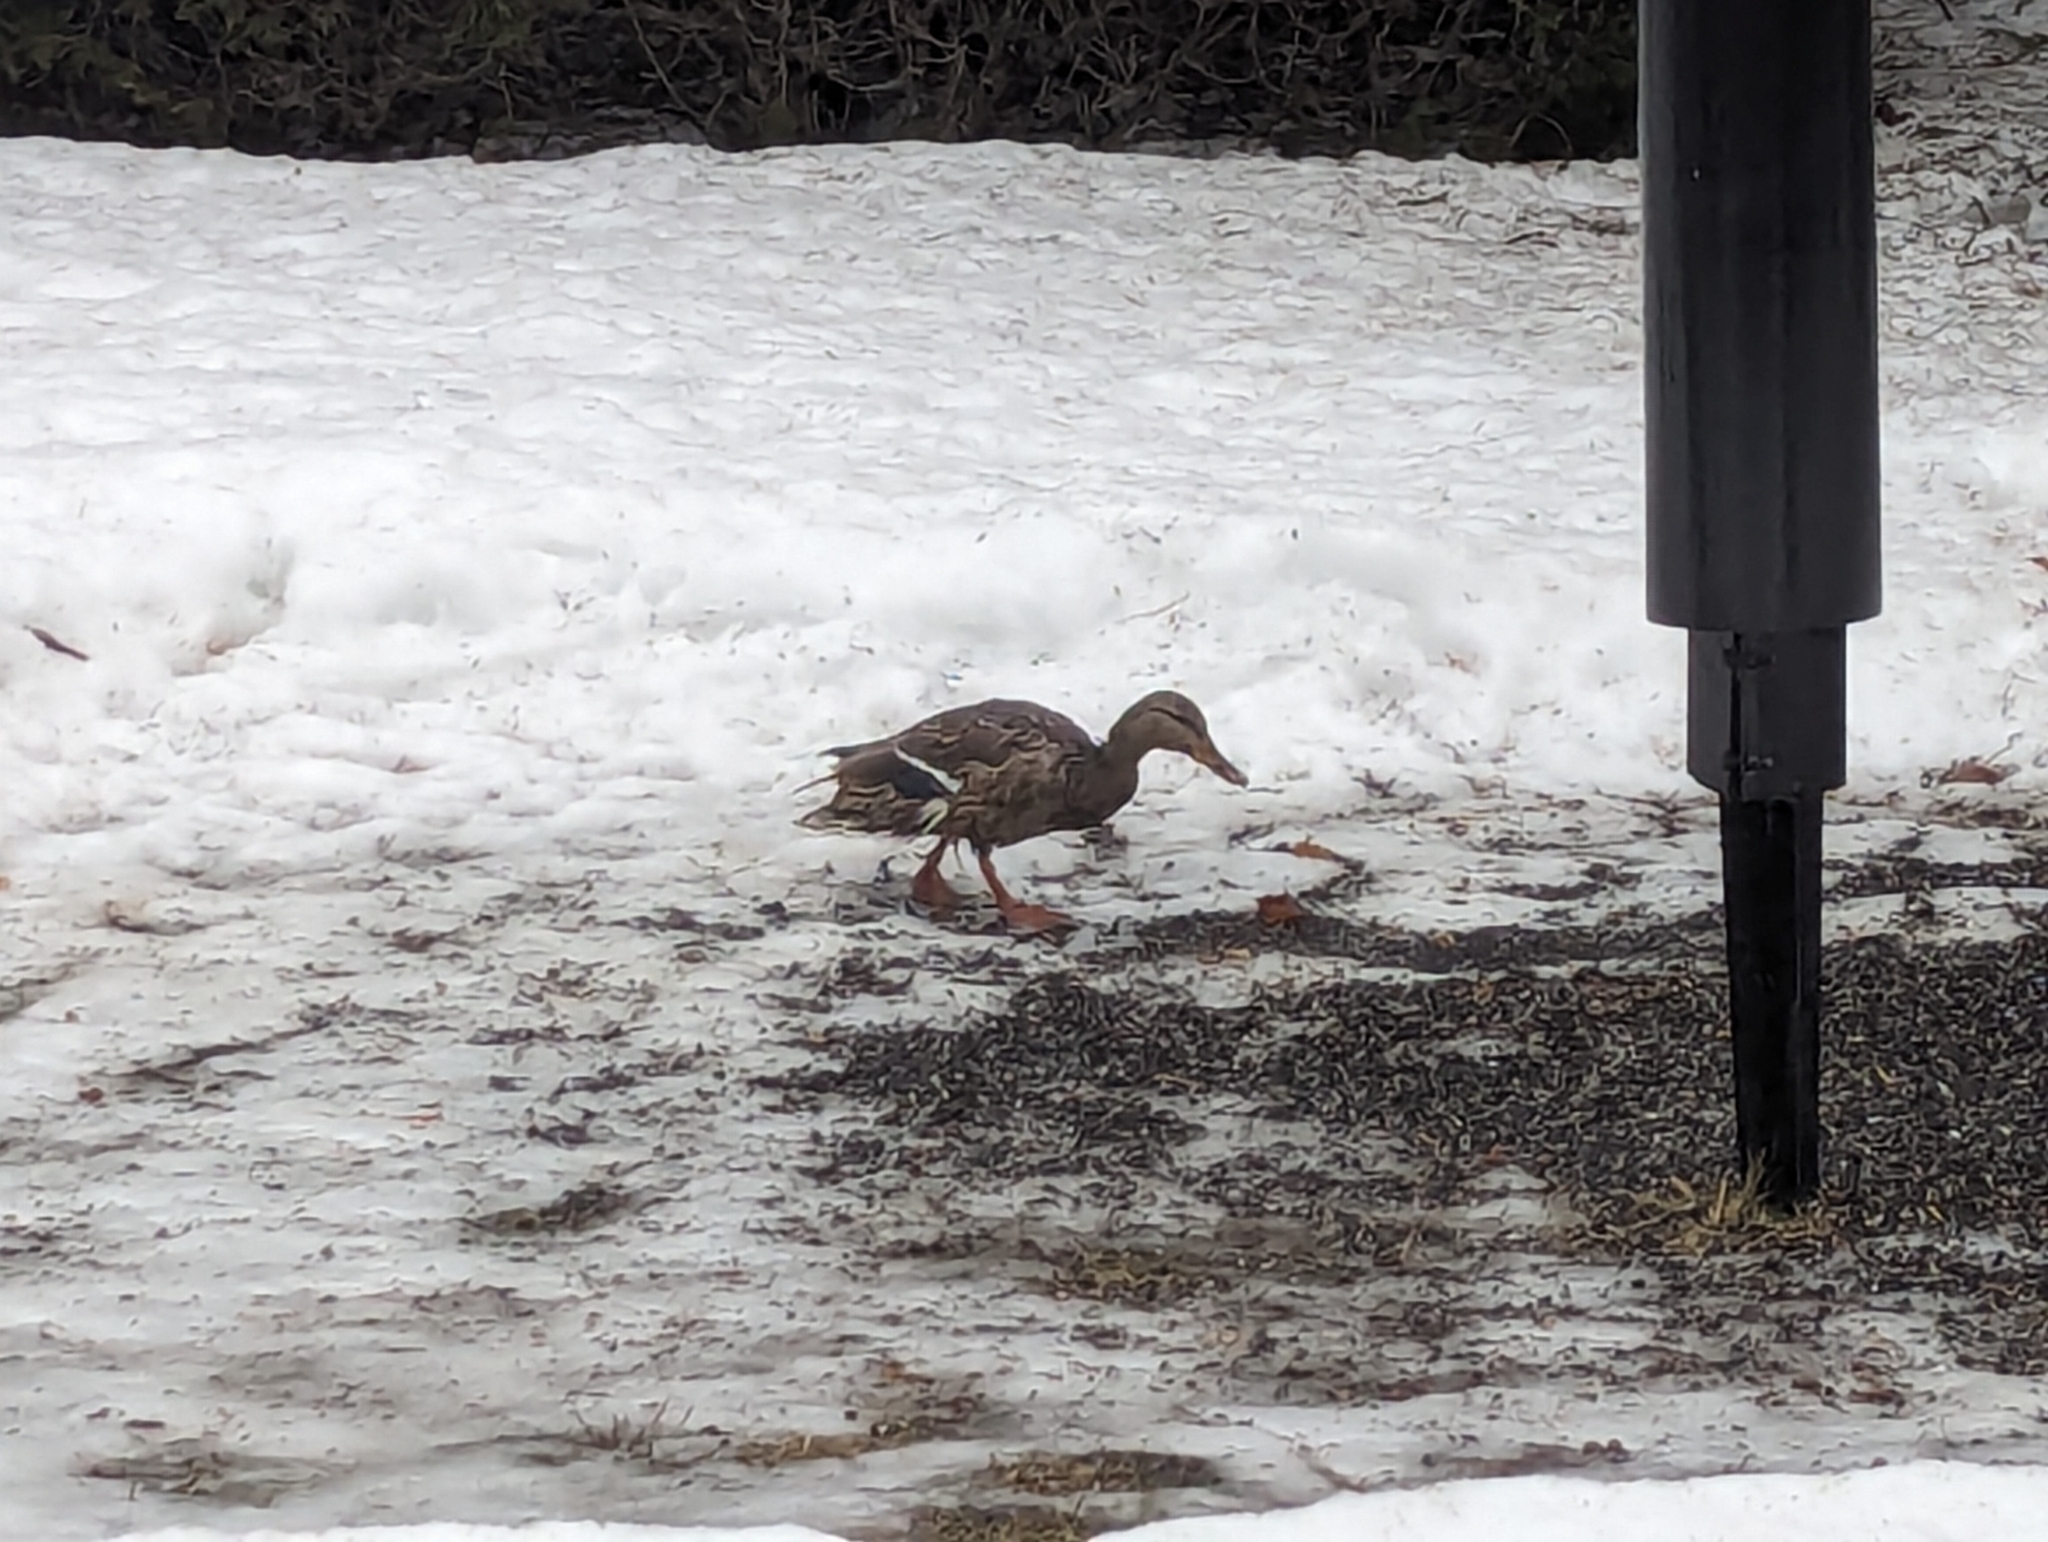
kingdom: Animalia
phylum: Chordata
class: Aves
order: Anseriformes
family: Anatidae
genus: Anas
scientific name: Anas platyrhynchos
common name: Mallard
